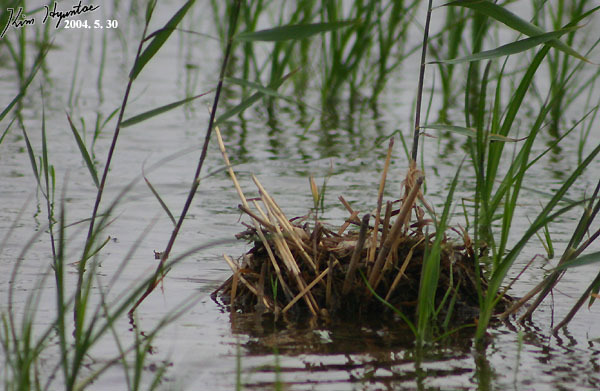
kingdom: Animalia
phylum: Chordata
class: Aves
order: Charadriiformes
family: Rostratulidae
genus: Rostratula
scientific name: Rostratula benghalensis
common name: Greater painted-snipe
